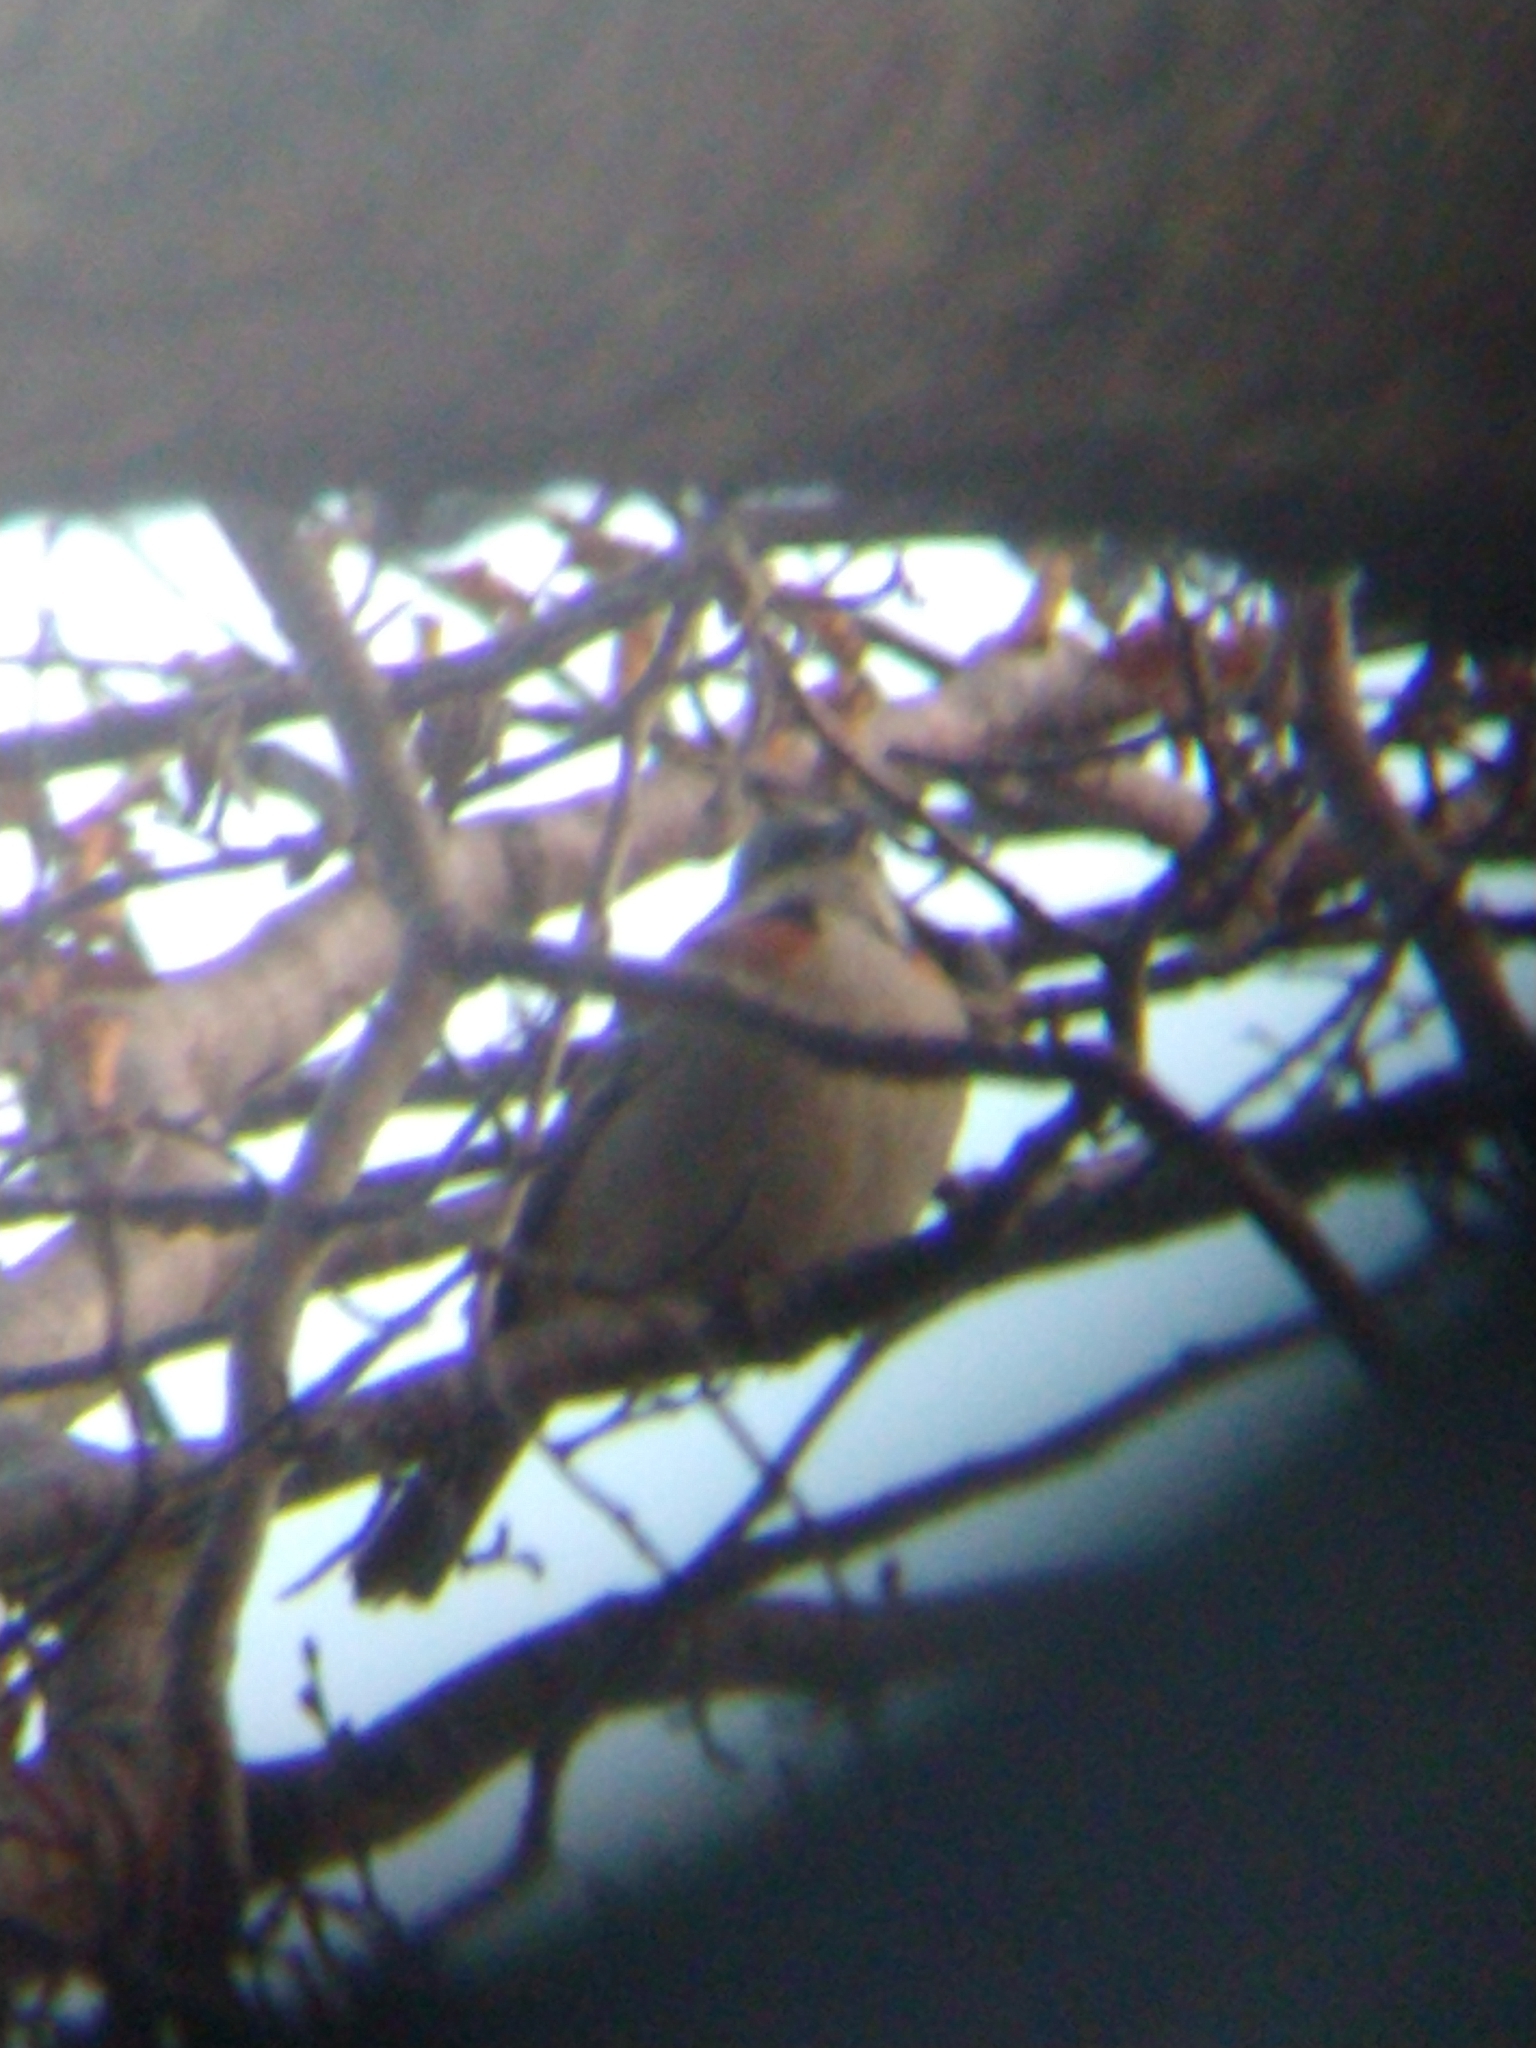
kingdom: Animalia
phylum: Chordata
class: Aves
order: Passeriformes
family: Passerellidae
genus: Zonotrichia
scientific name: Zonotrichia capensis
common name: Rufous-collared sparrow
